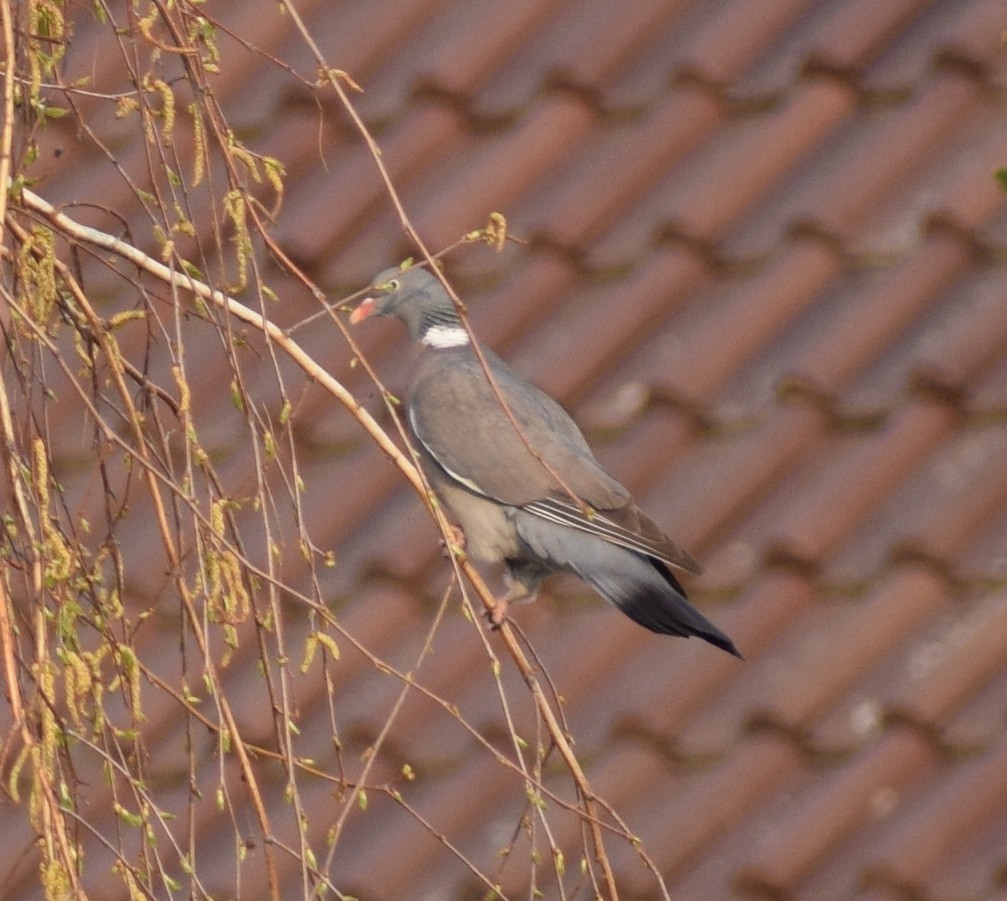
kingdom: Animalia
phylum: Chordata
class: Aves
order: Columbiformes
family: Columbidae
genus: Columba
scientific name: Columba palumbus
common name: Common wood pigeon
